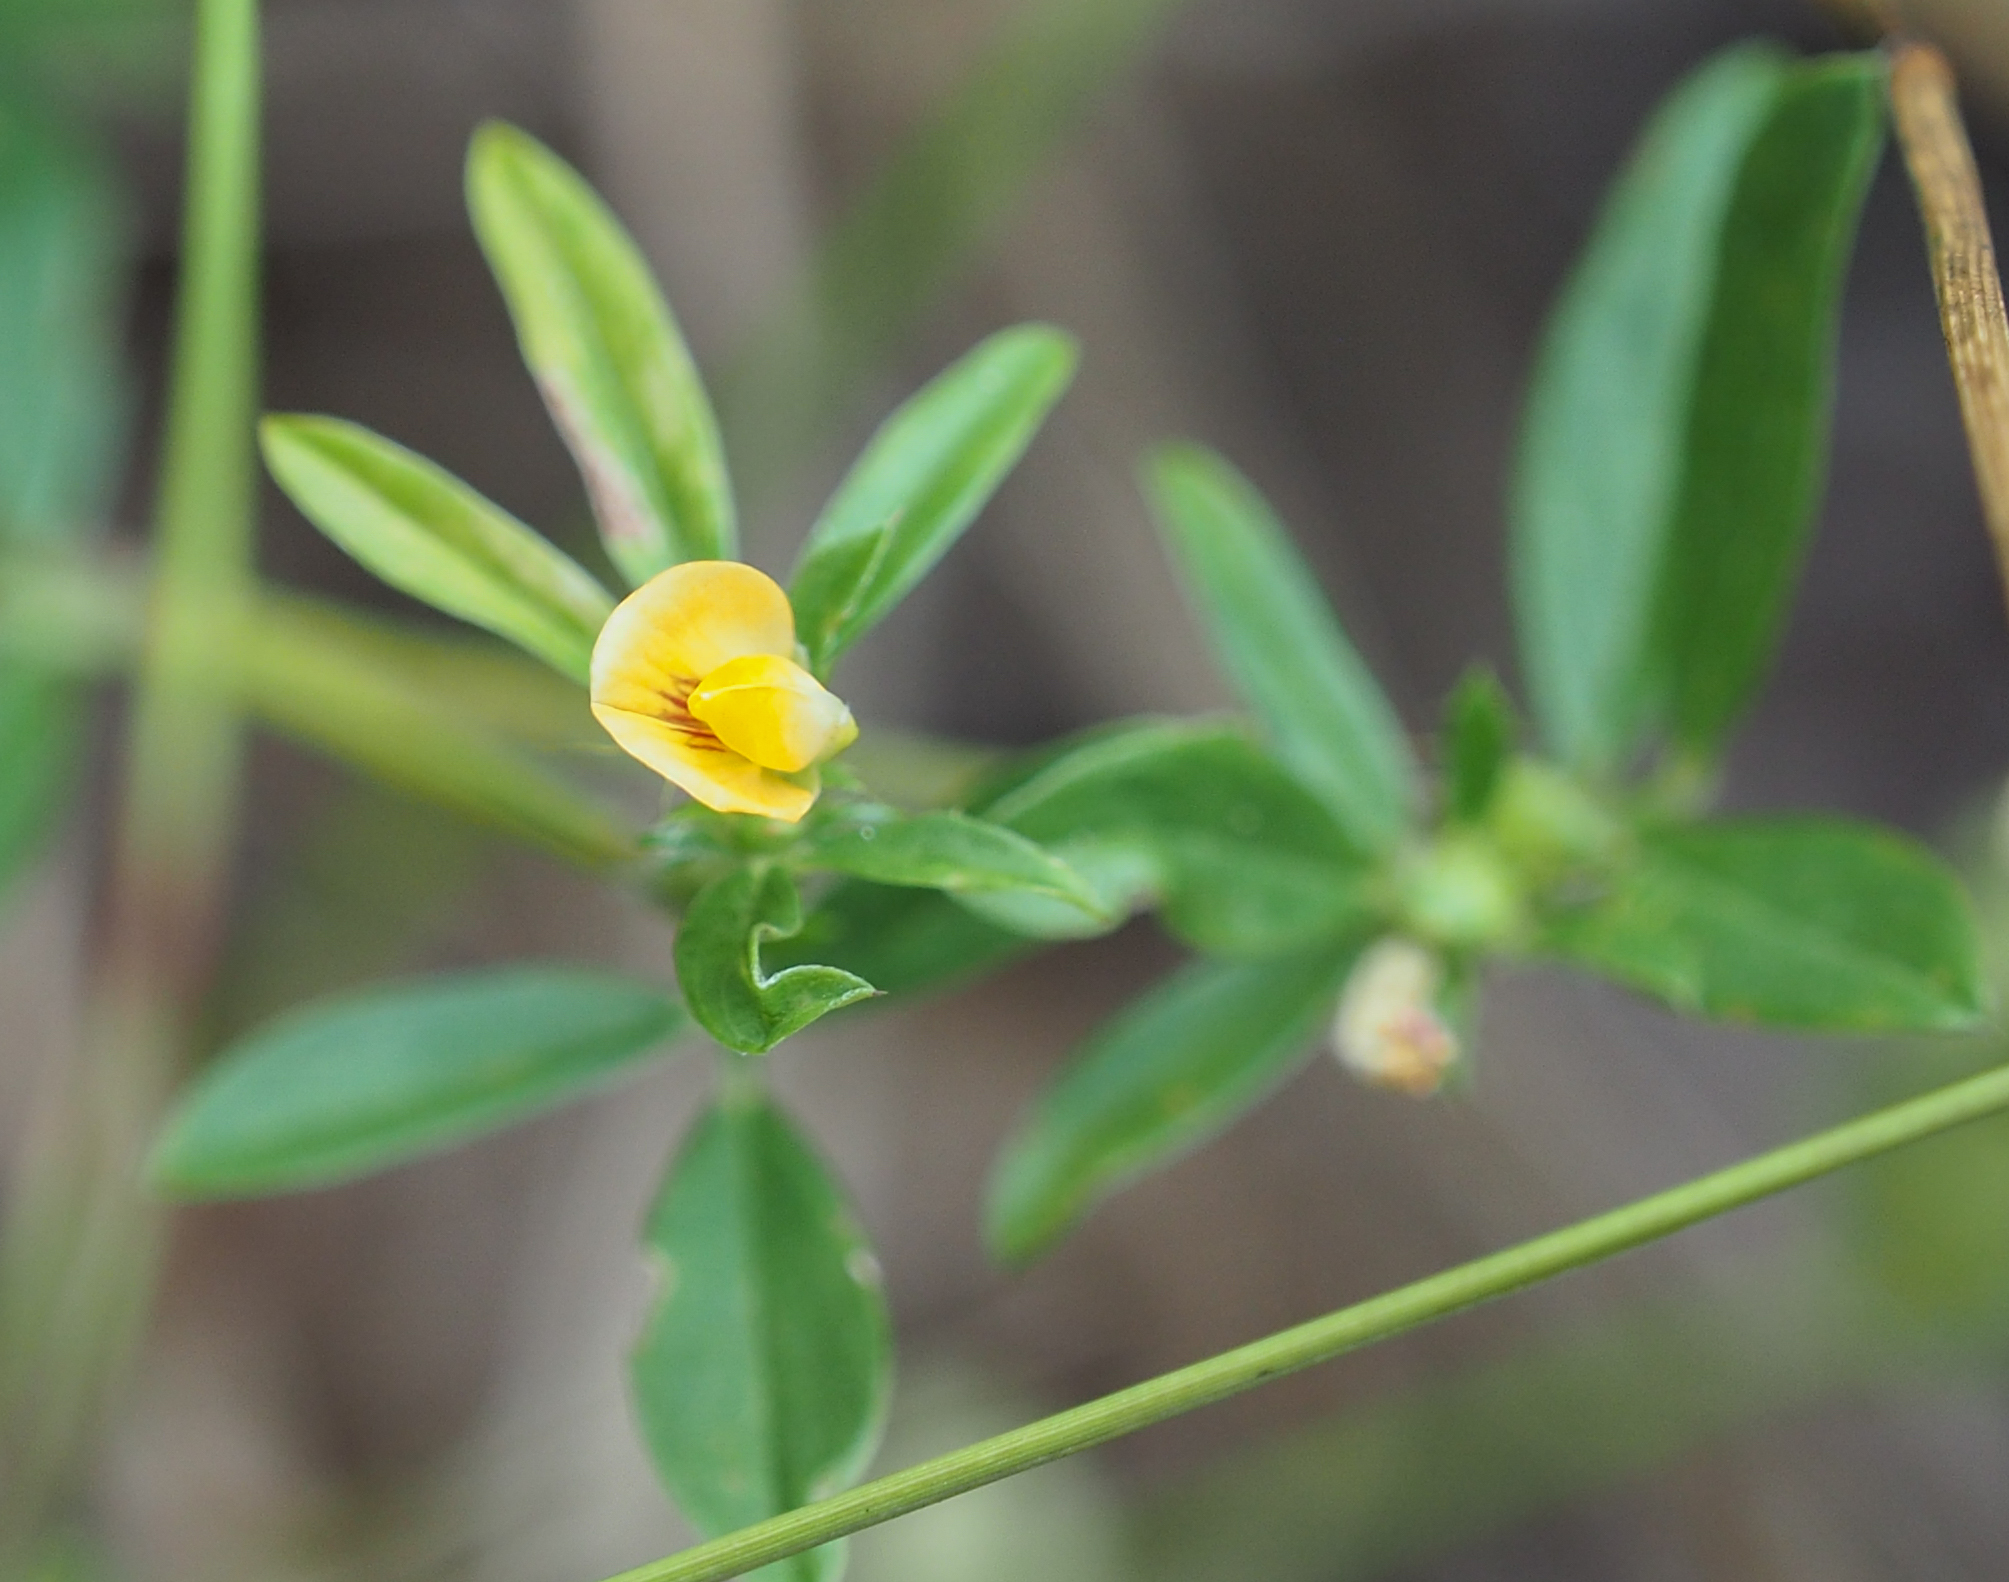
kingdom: Plantae
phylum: Tracheophyta
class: Magnoliopsida
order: Fabales
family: Fabaceae
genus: Stylosanthes
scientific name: Stylosanthes biflora
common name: Two-flower pencil-flower
